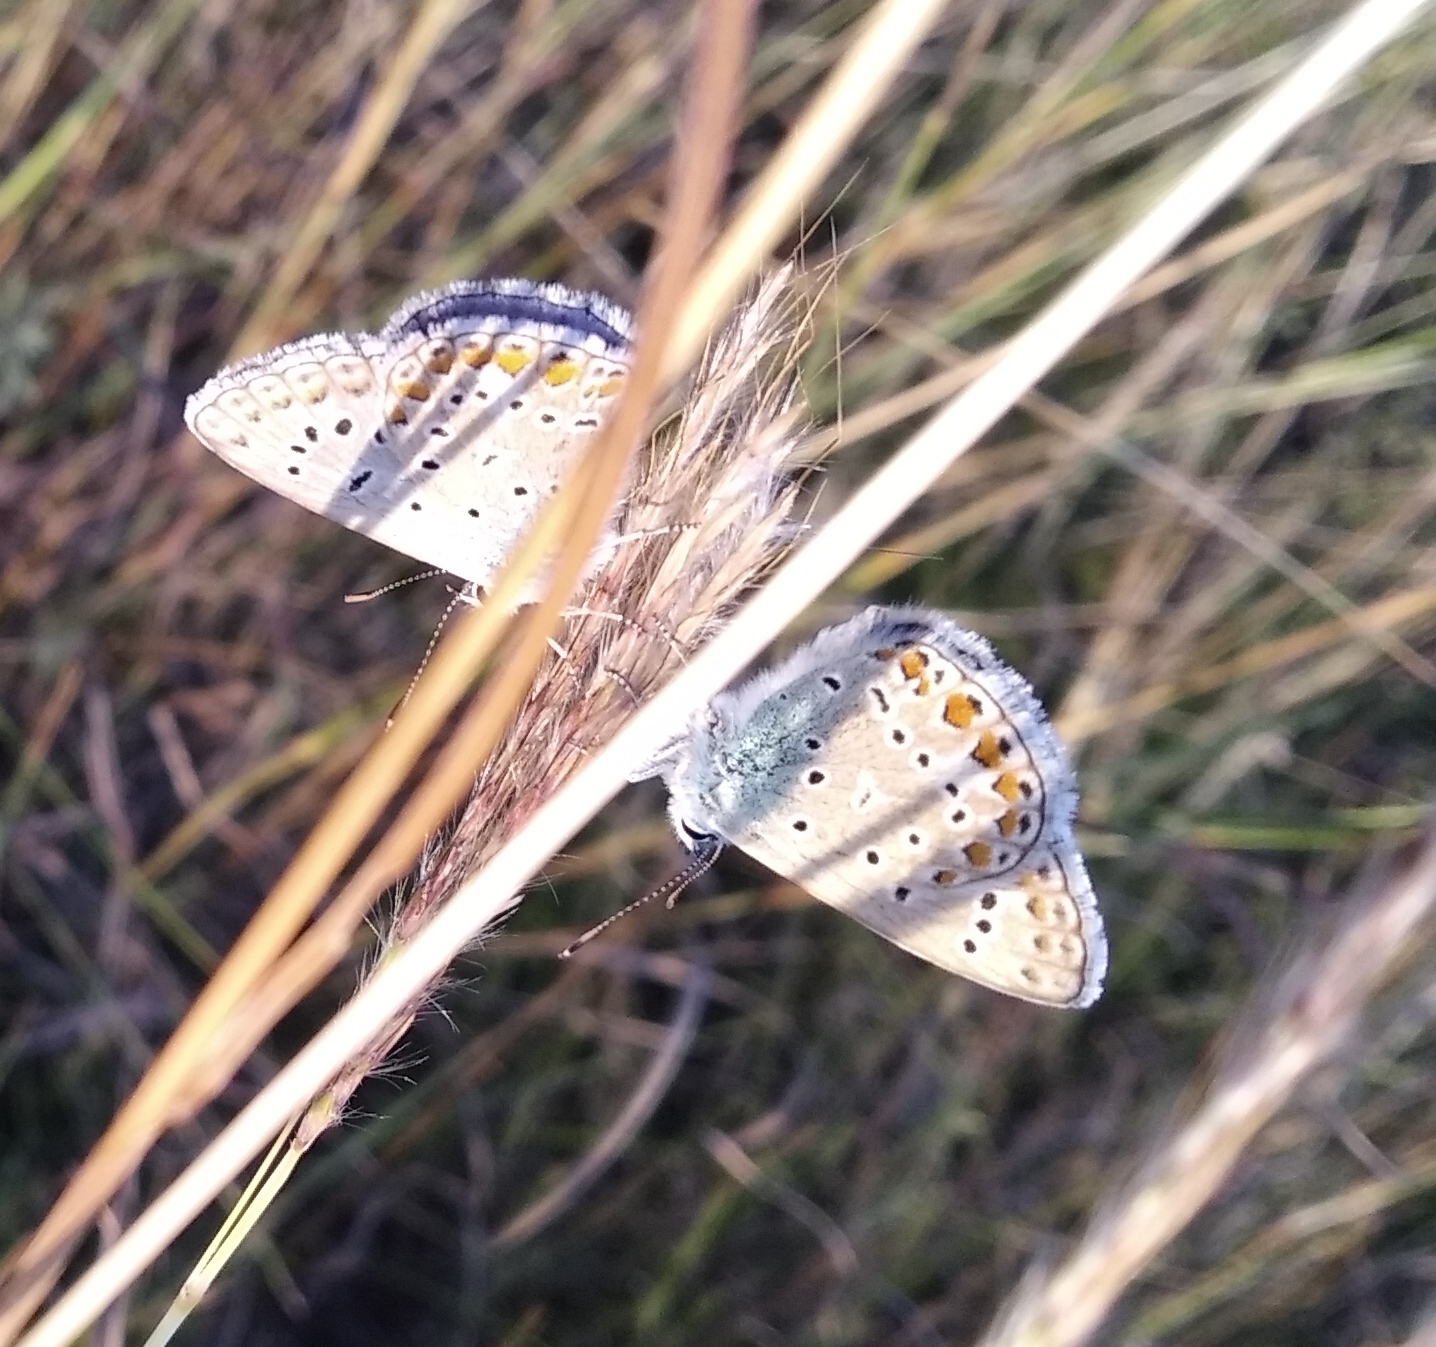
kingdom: Animalia
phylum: Arthropoda
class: Insecta
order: Lepidoptera
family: Lycaenidae
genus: Polyommatus
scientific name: Polyommatus icarus
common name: Common blue
